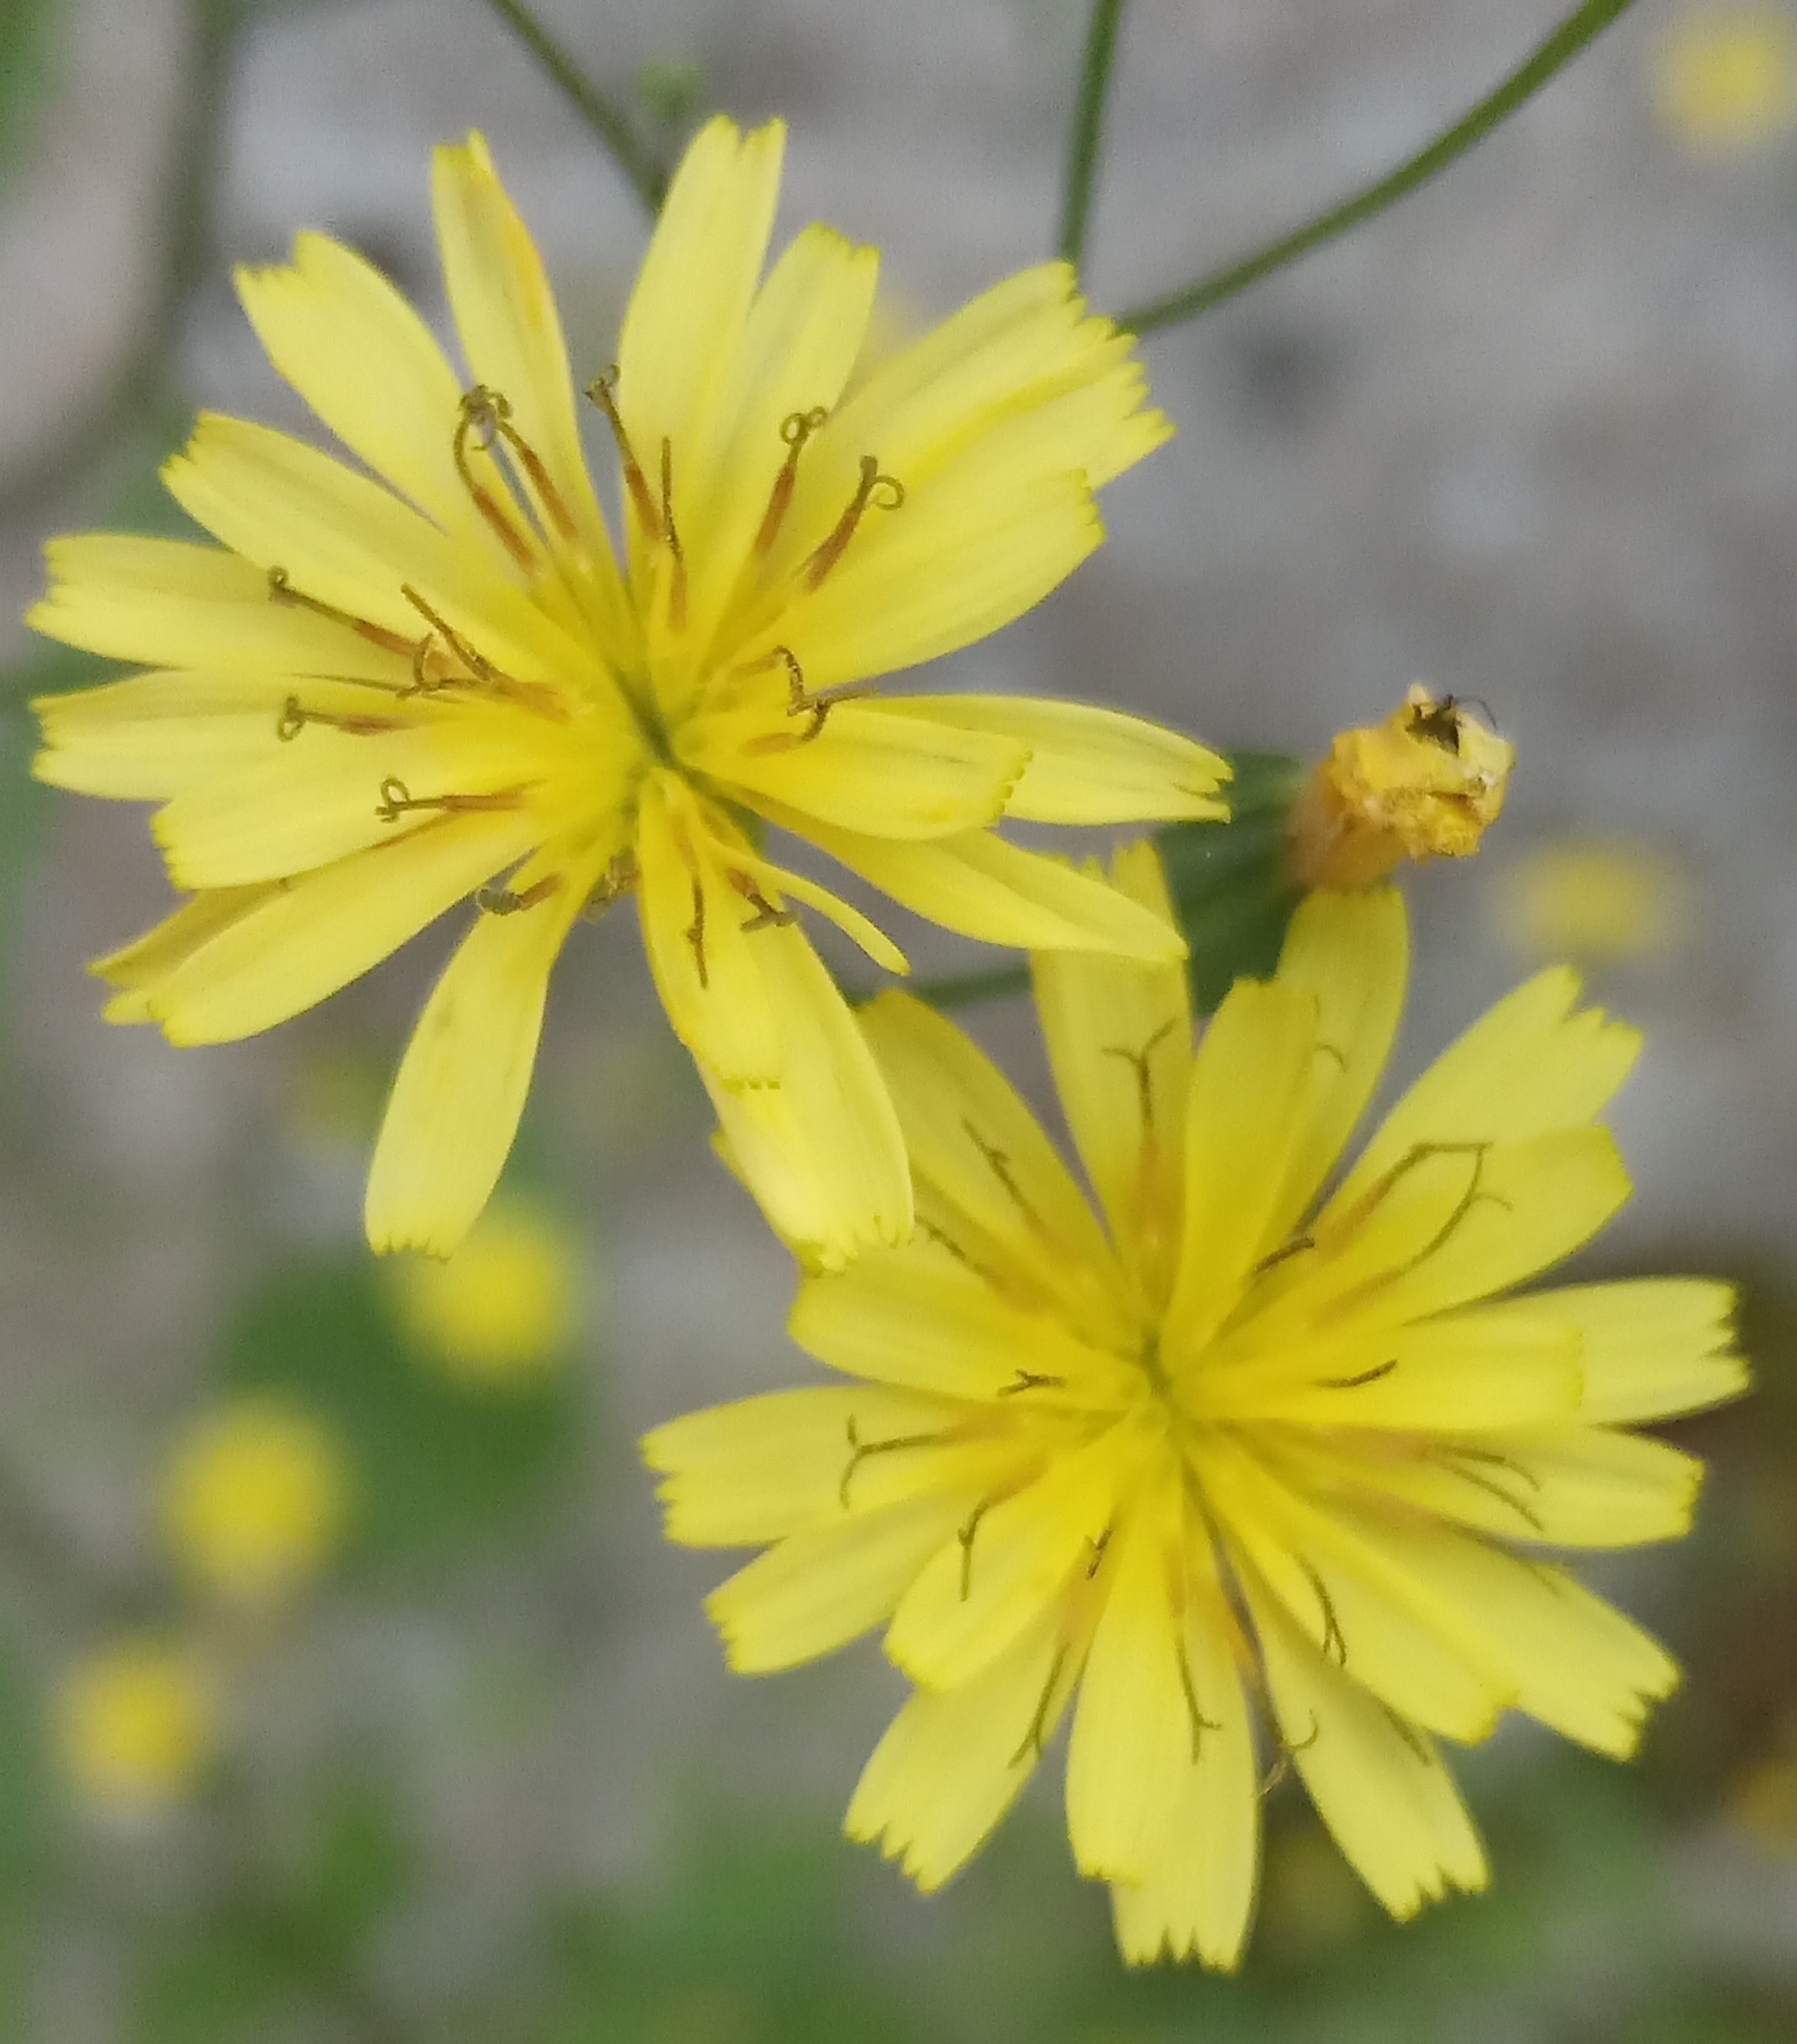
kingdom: Plantae
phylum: Tracheophyta
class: Magnoliopsida
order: Asterales
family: Asteraceae
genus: Lapsana
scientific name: Lapsana communis
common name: Nipplewort
